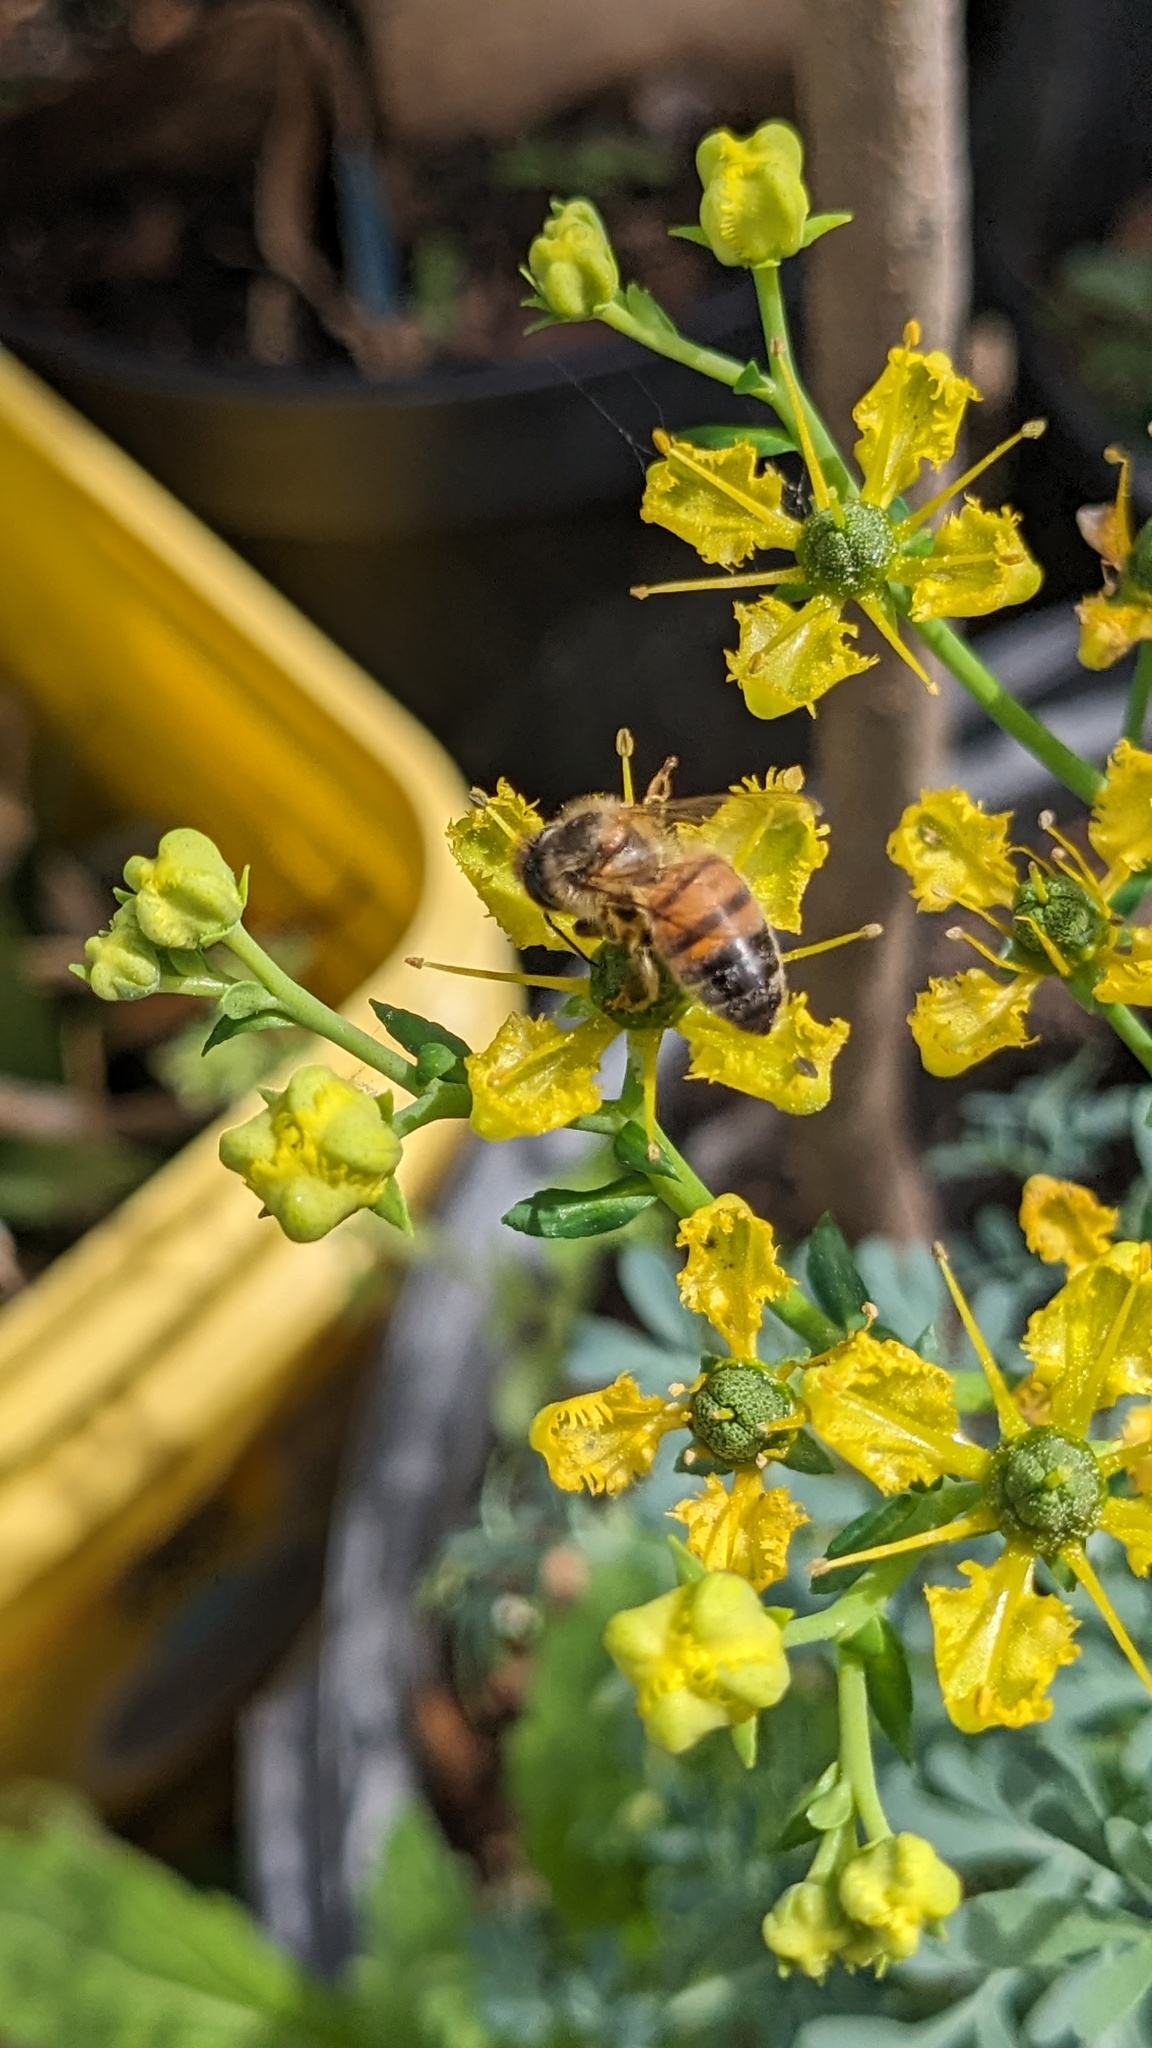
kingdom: Animalia
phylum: Arthropoda
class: Insecta
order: Hymenoptera
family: Apidae
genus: Apis
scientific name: Apis mellifera
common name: Honey bee
